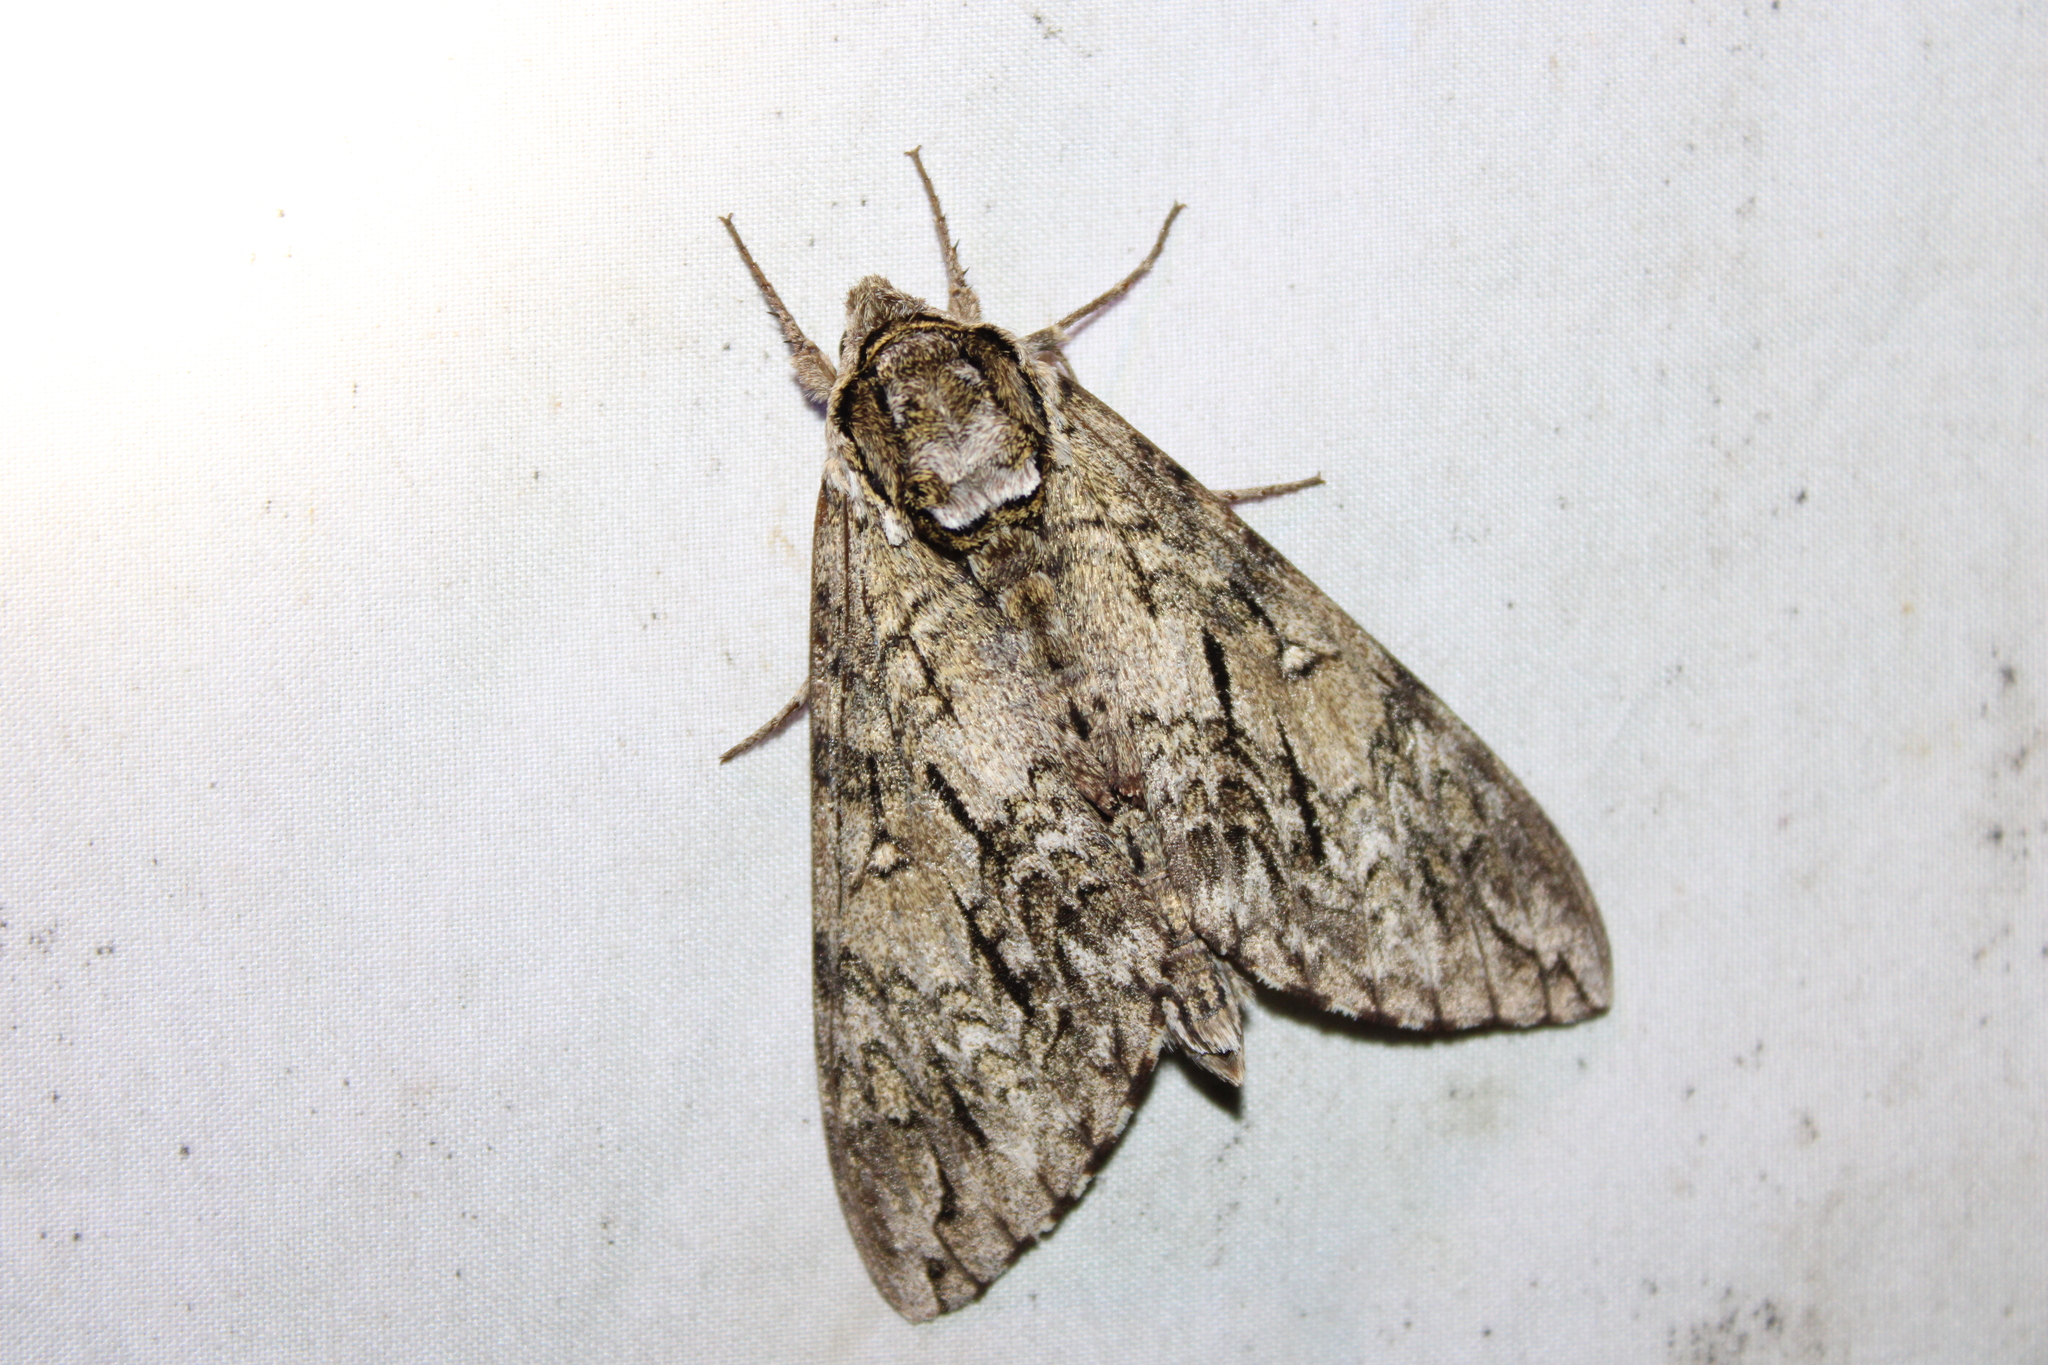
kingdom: Animalia
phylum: Arthropoda
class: Insecta
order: Lepidoptera
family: Sphingidae
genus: Ceratomia
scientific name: Ceratomia undulosa
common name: Waved sphinx
